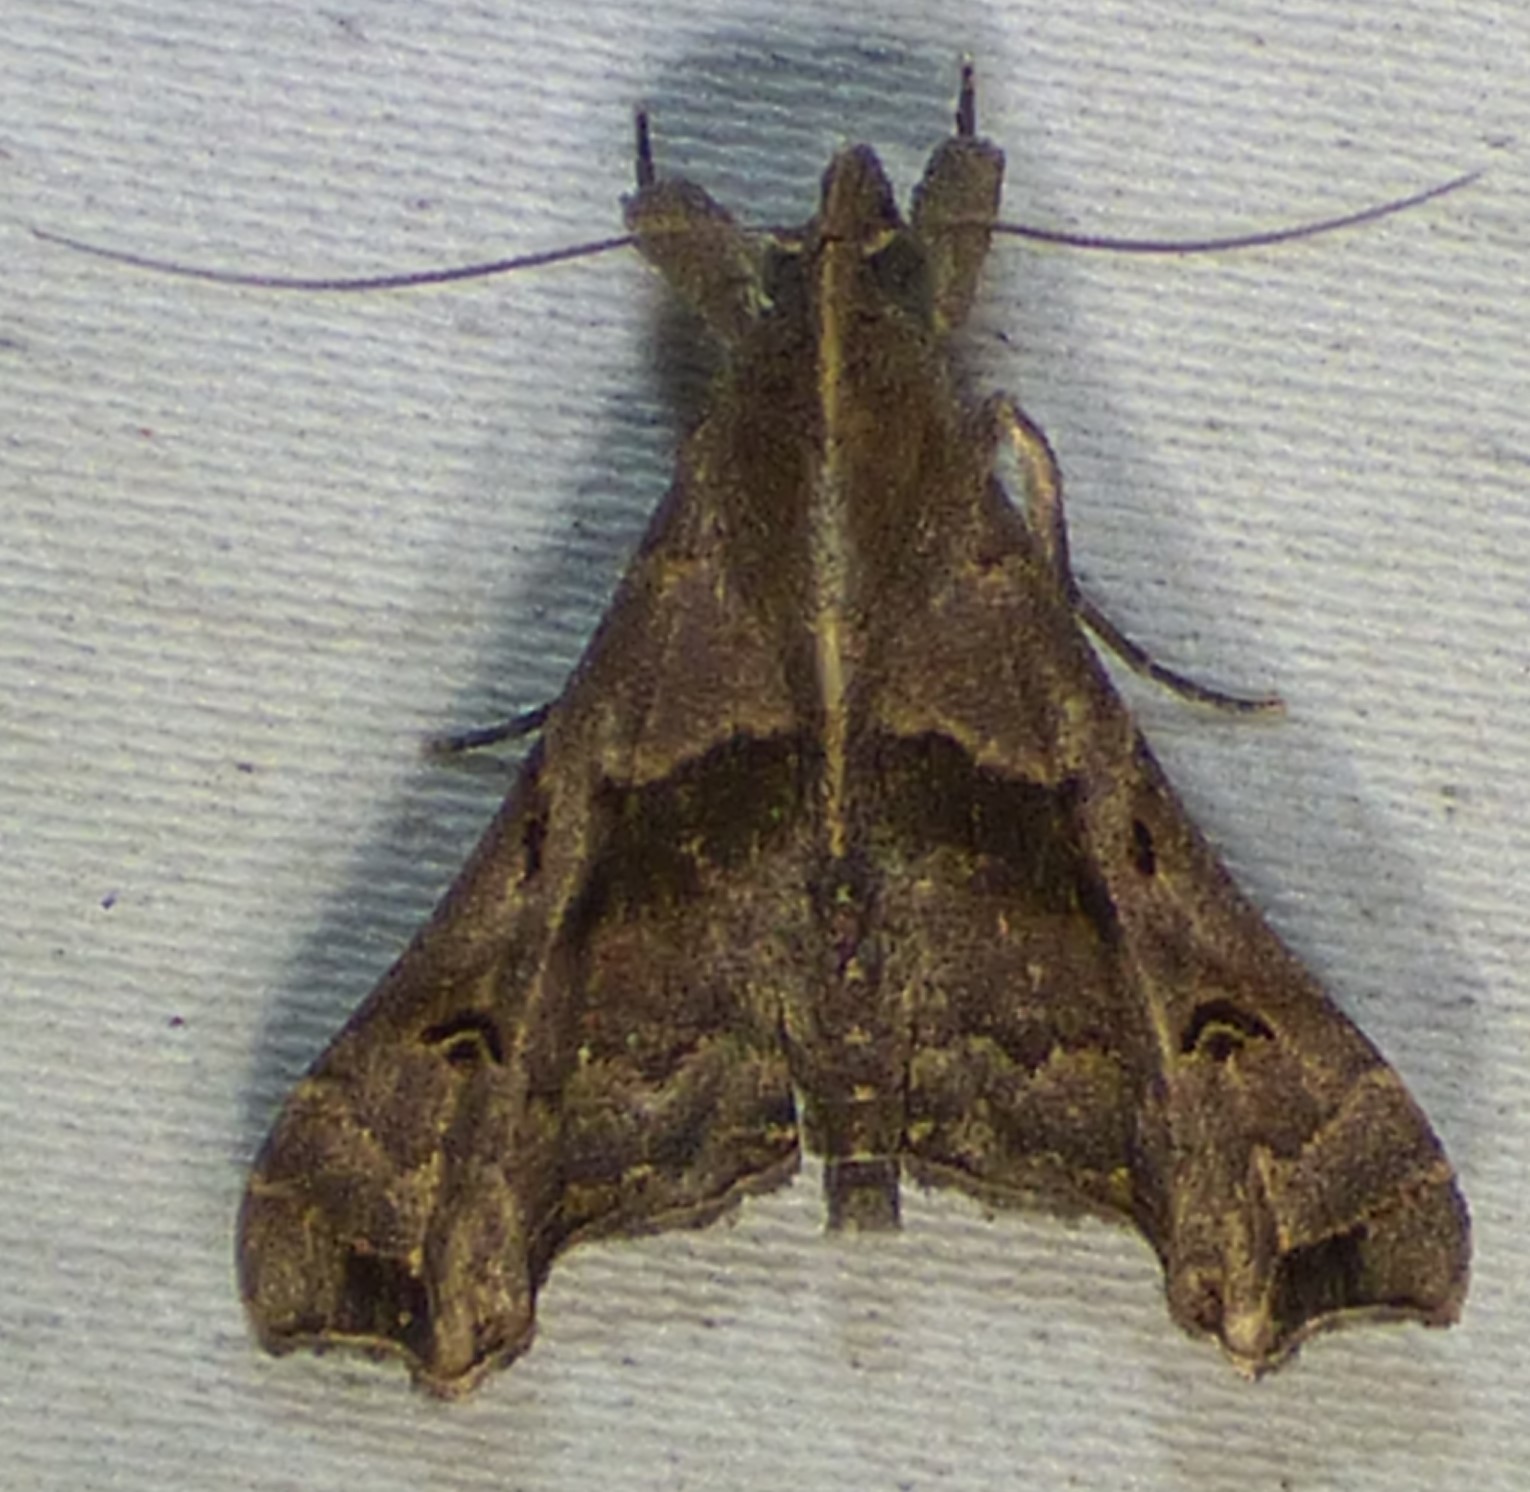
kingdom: Animalia
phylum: Arthropoda
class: Insecta
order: Lepidoptera
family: Erebidae
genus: Palthis
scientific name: Palthis asopialis
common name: Faint-spotted palthis moth
